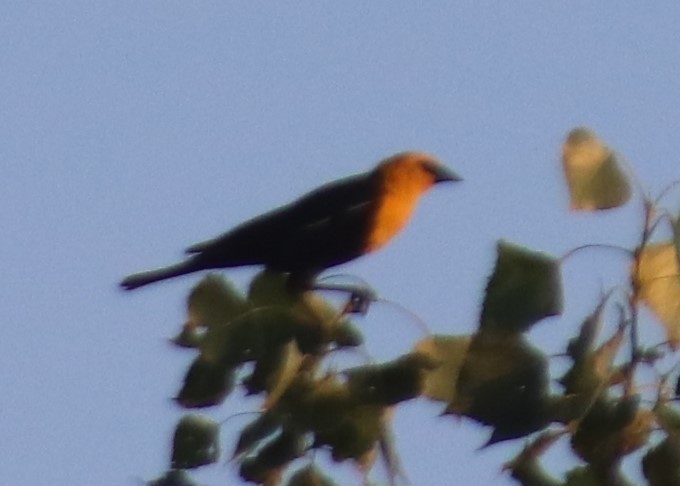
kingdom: Animalia
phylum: Chordata
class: Aves
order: Passeriformes
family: Icteridae
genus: Xanthocephalus
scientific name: Xanthocephalus xanthocephalus
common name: Yellow-headed blackbird
